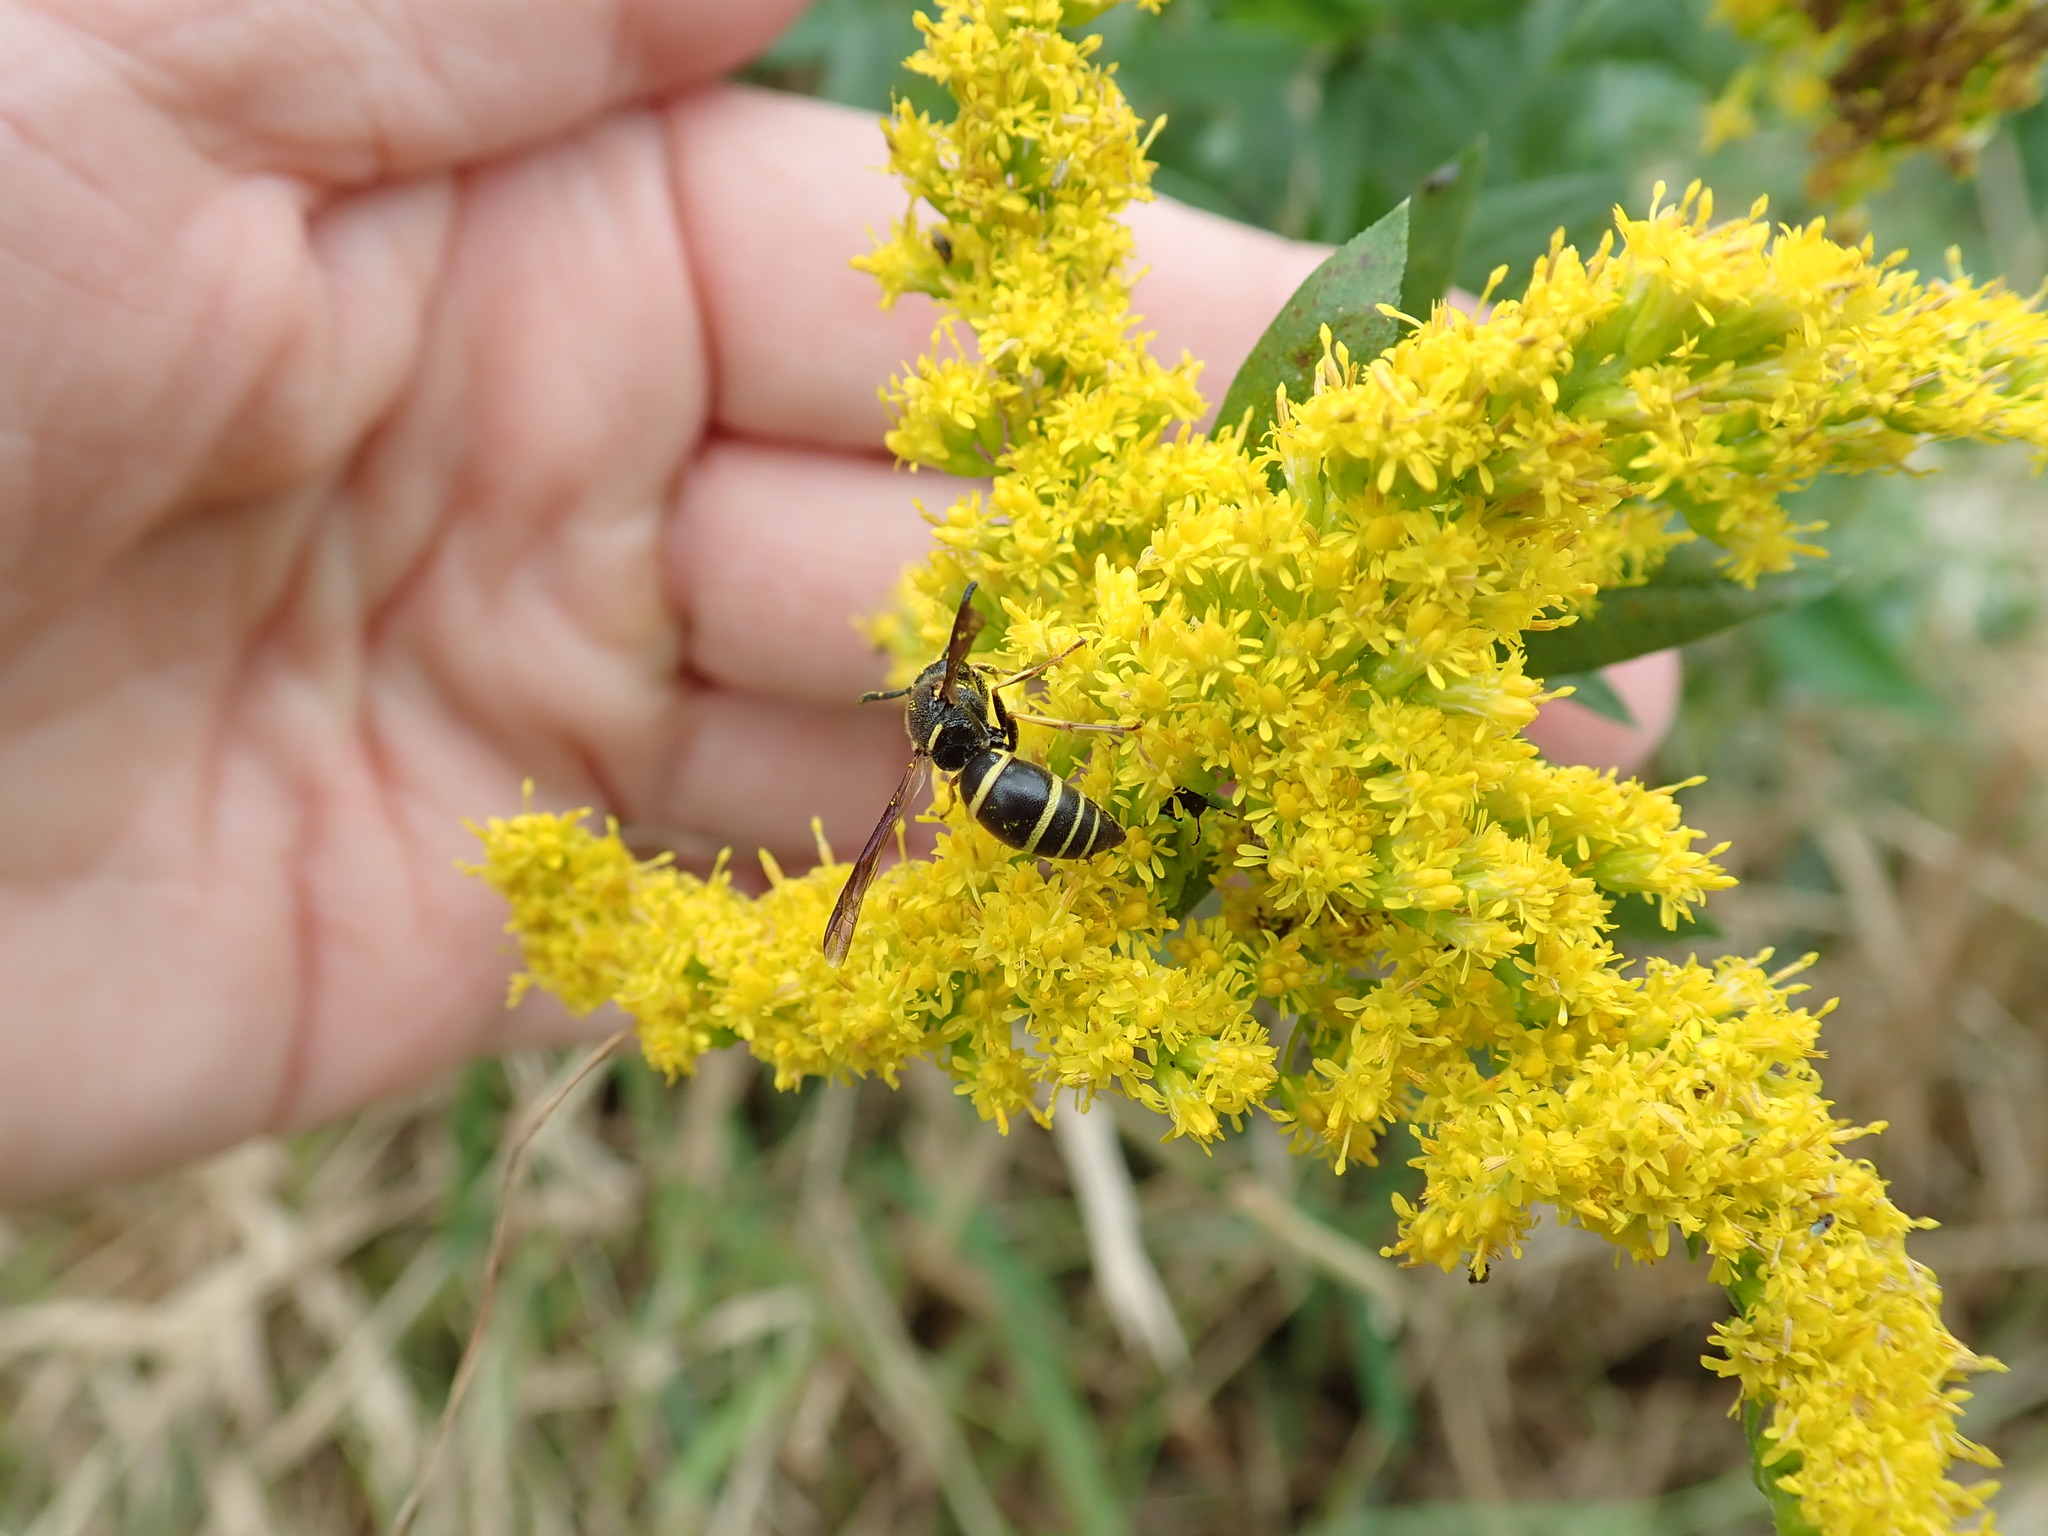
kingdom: Animalia
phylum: Arthropoda
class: Insecta
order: Hymenoptera
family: Eumenidae
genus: Euodynerus
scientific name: Euodynerus foraminatus
